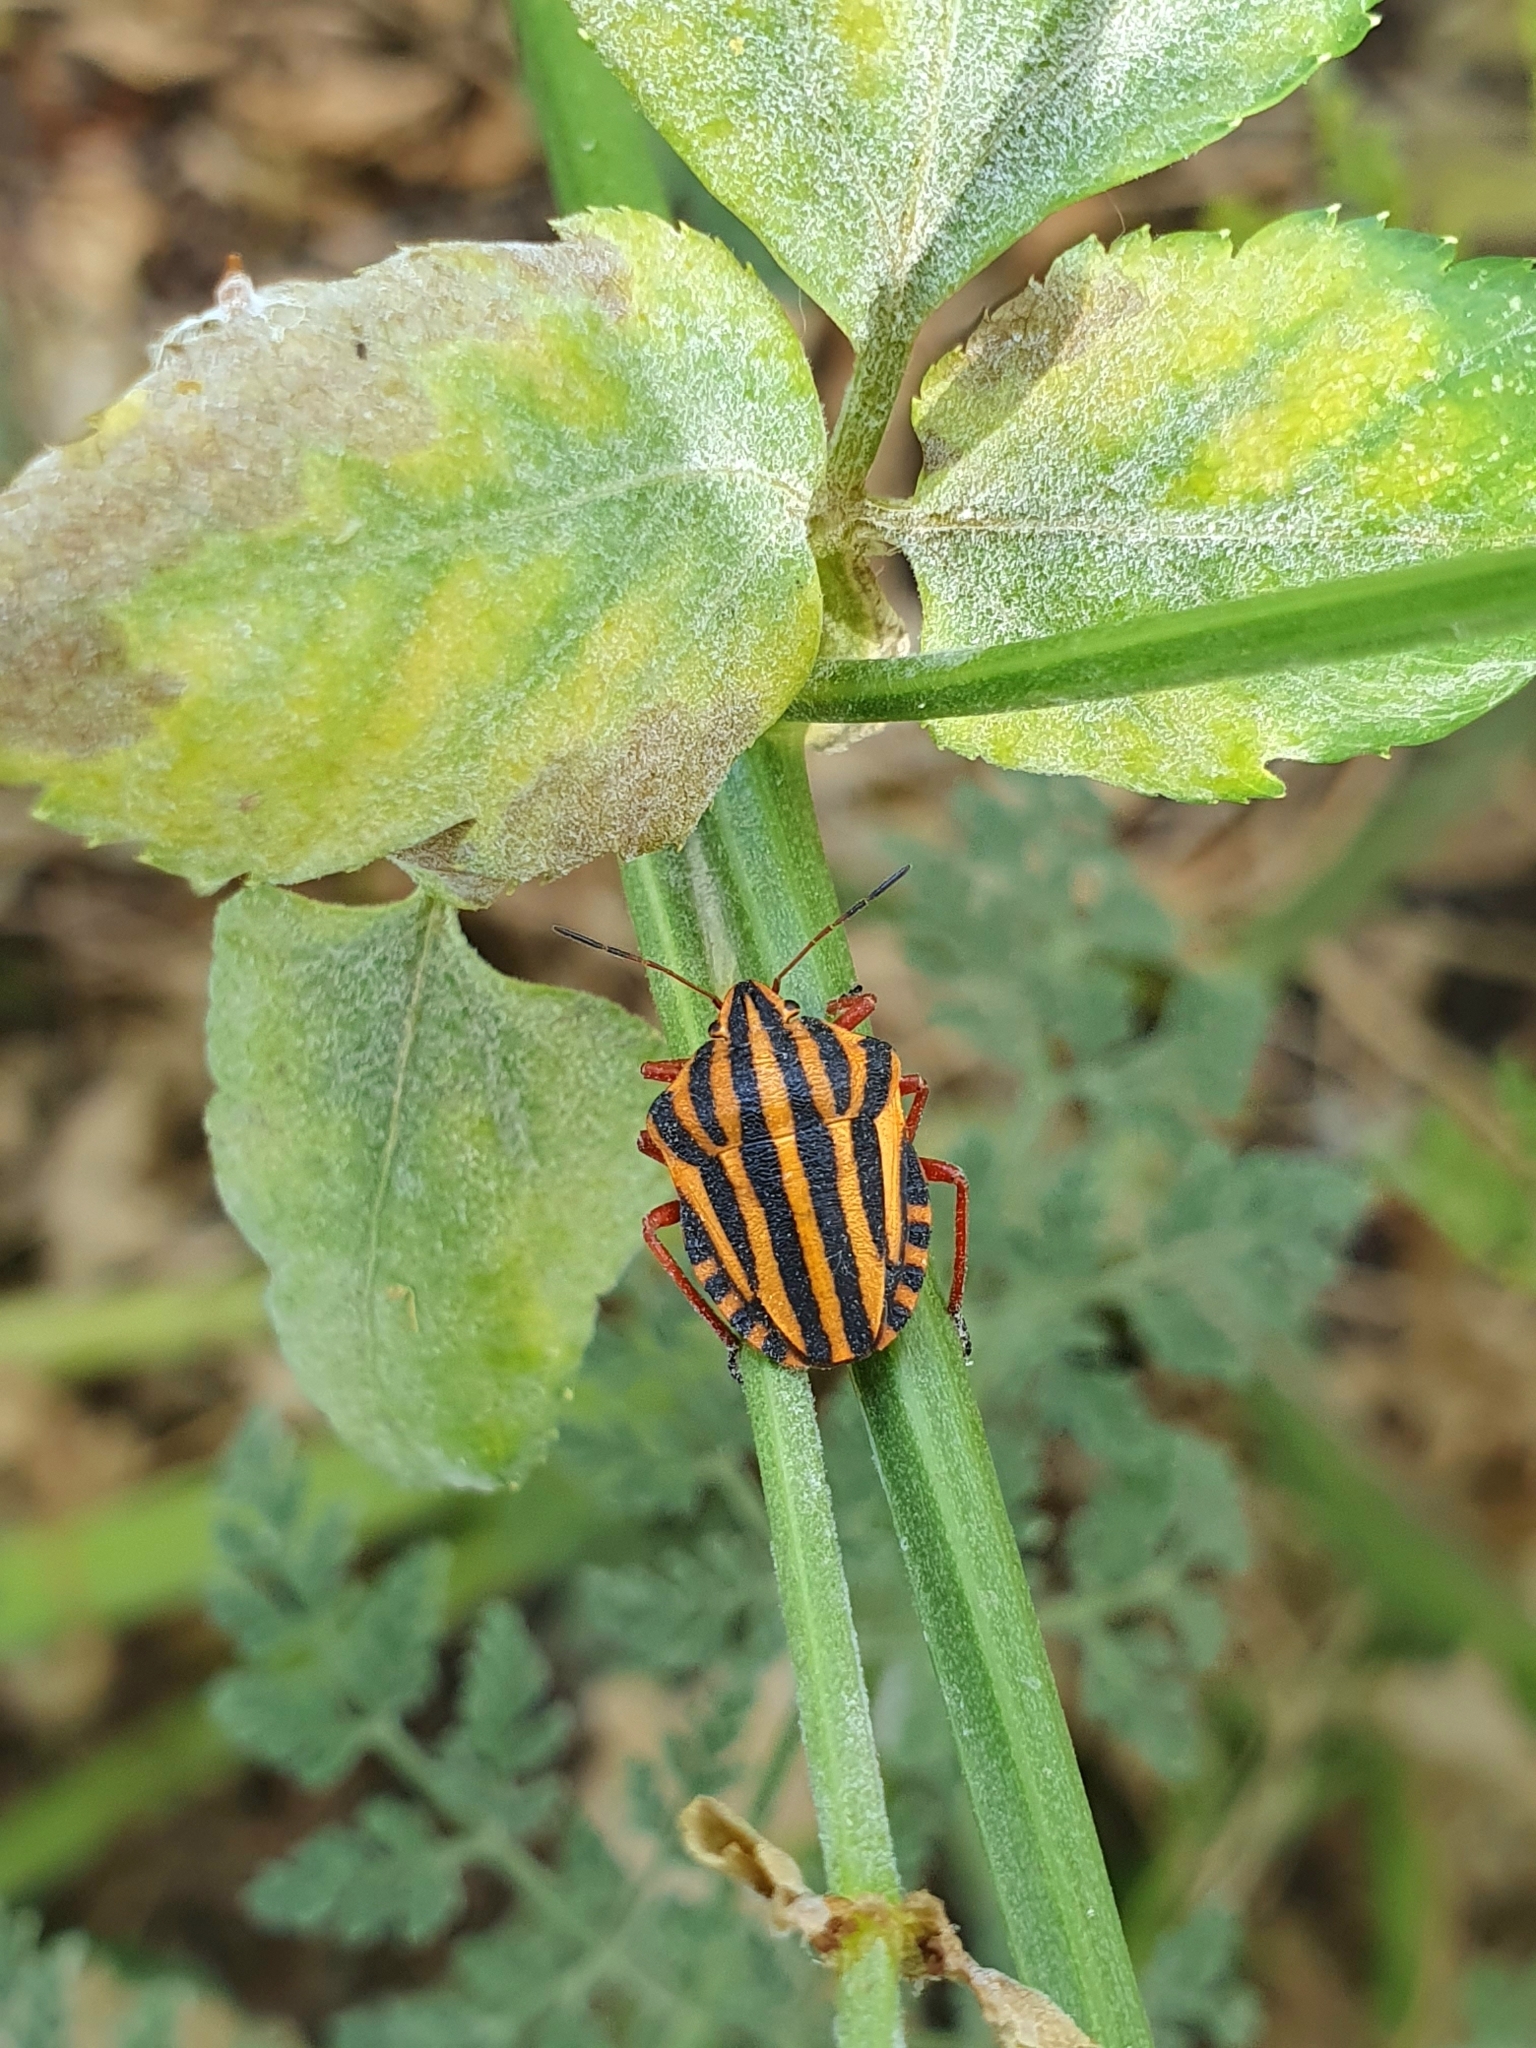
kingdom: Animalia
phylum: Arthropoda
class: Insecta
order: Hemiptera
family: Pentatomidae
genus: Graphosoma
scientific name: Graphosoma lineatum
